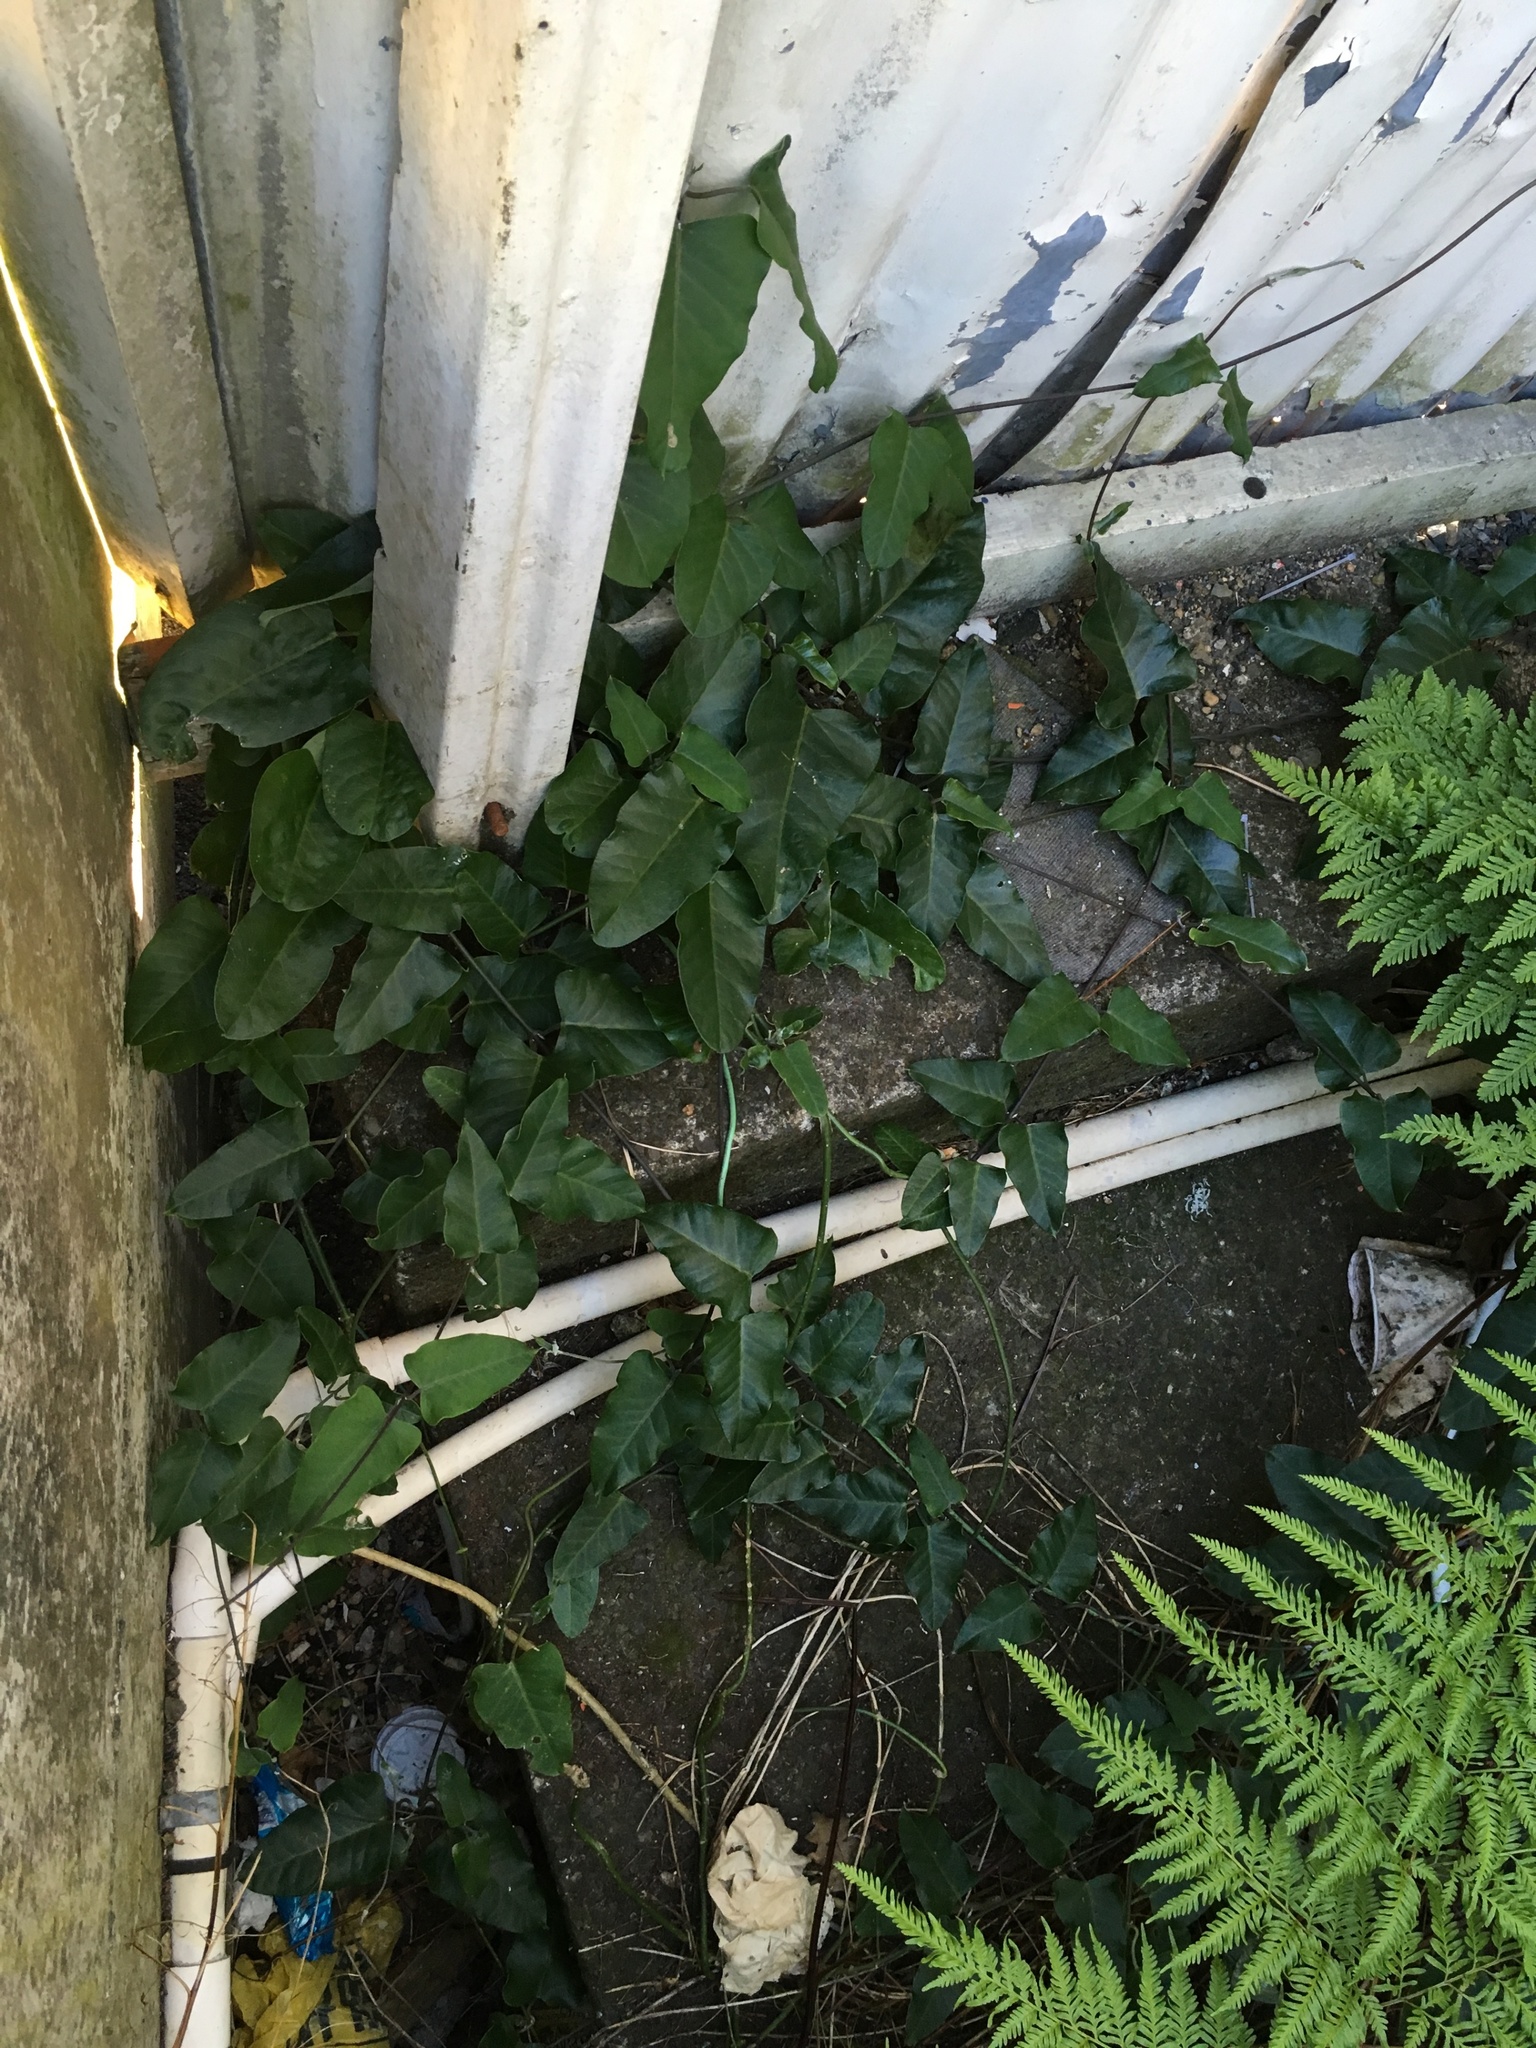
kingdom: Plantae
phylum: Tracheophyta
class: Magnoliopsida
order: Gentianales
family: Apocynaceae
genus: Araujia
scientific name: Araujia sericifera
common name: White bladderflower
